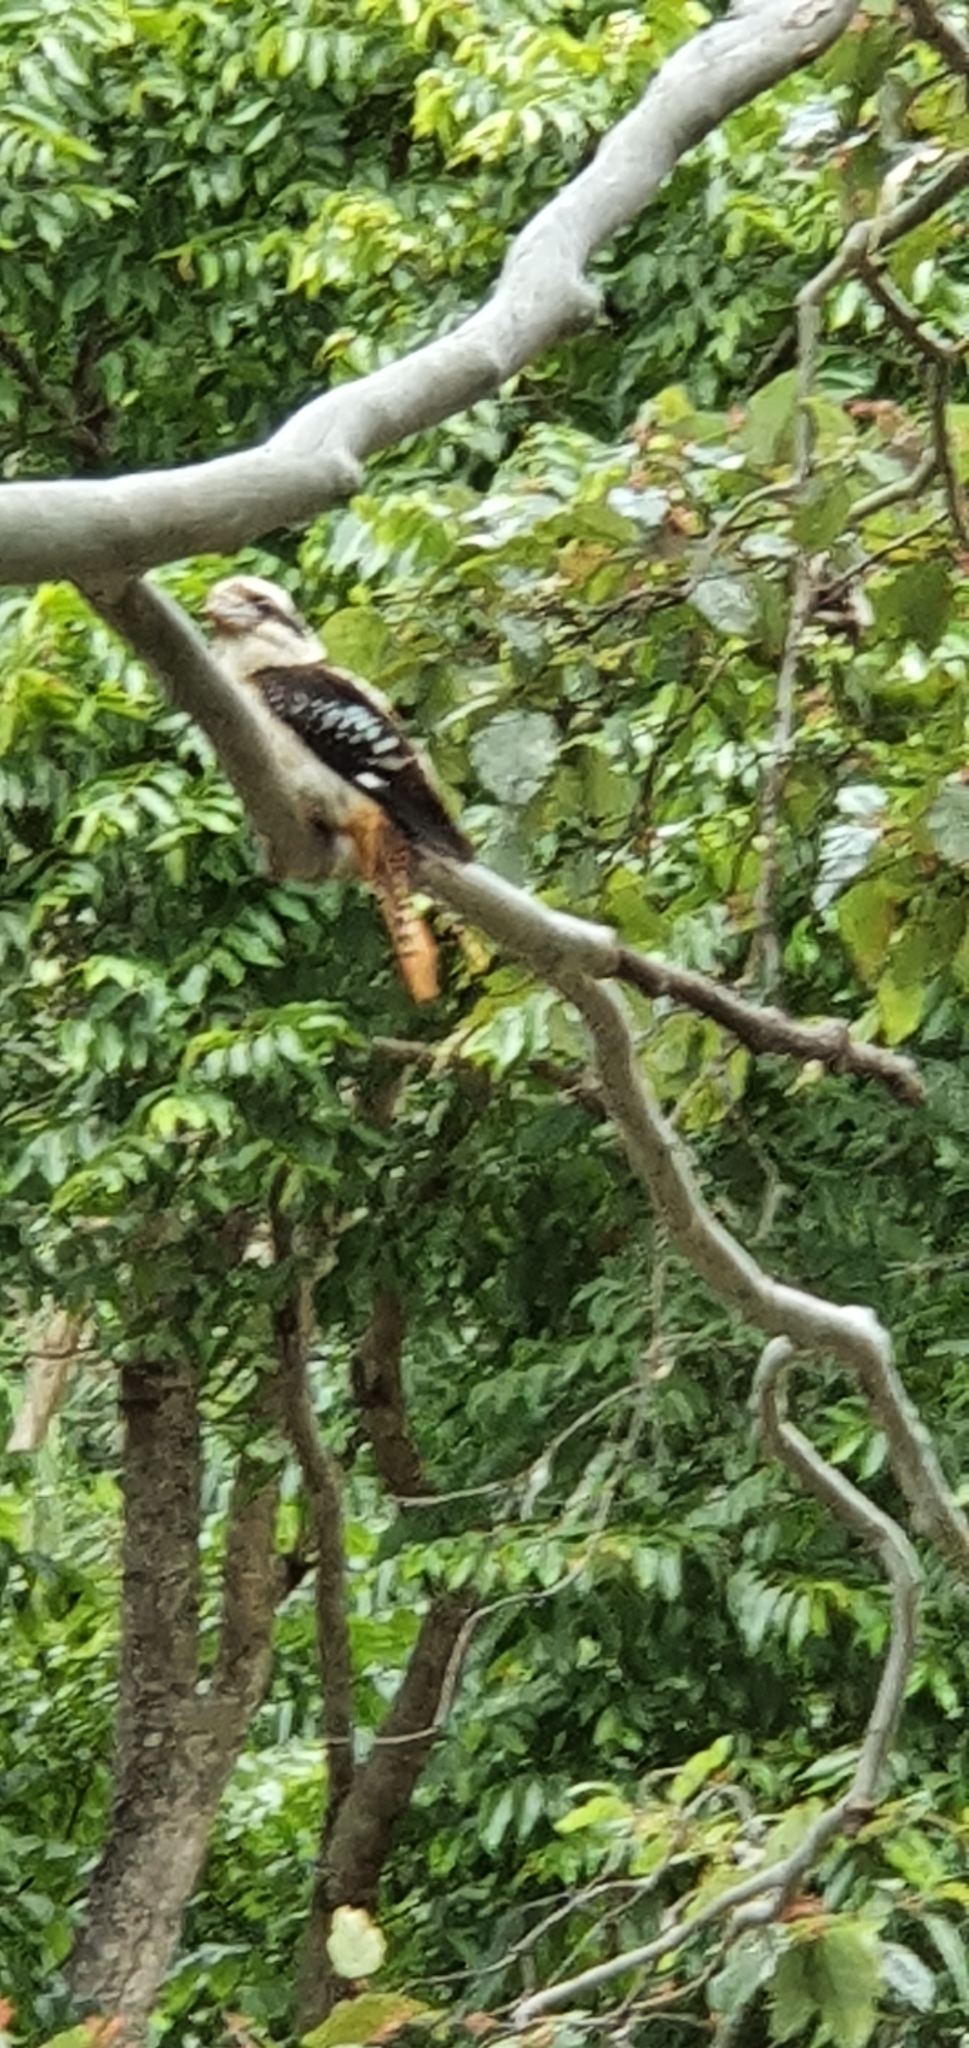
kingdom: Animalia
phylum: Chordata
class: Aves
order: Coraciiformes
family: Alcedinidae
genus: Dacelo
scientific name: Dacelo novaeguineae
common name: Laughing kookaburra
